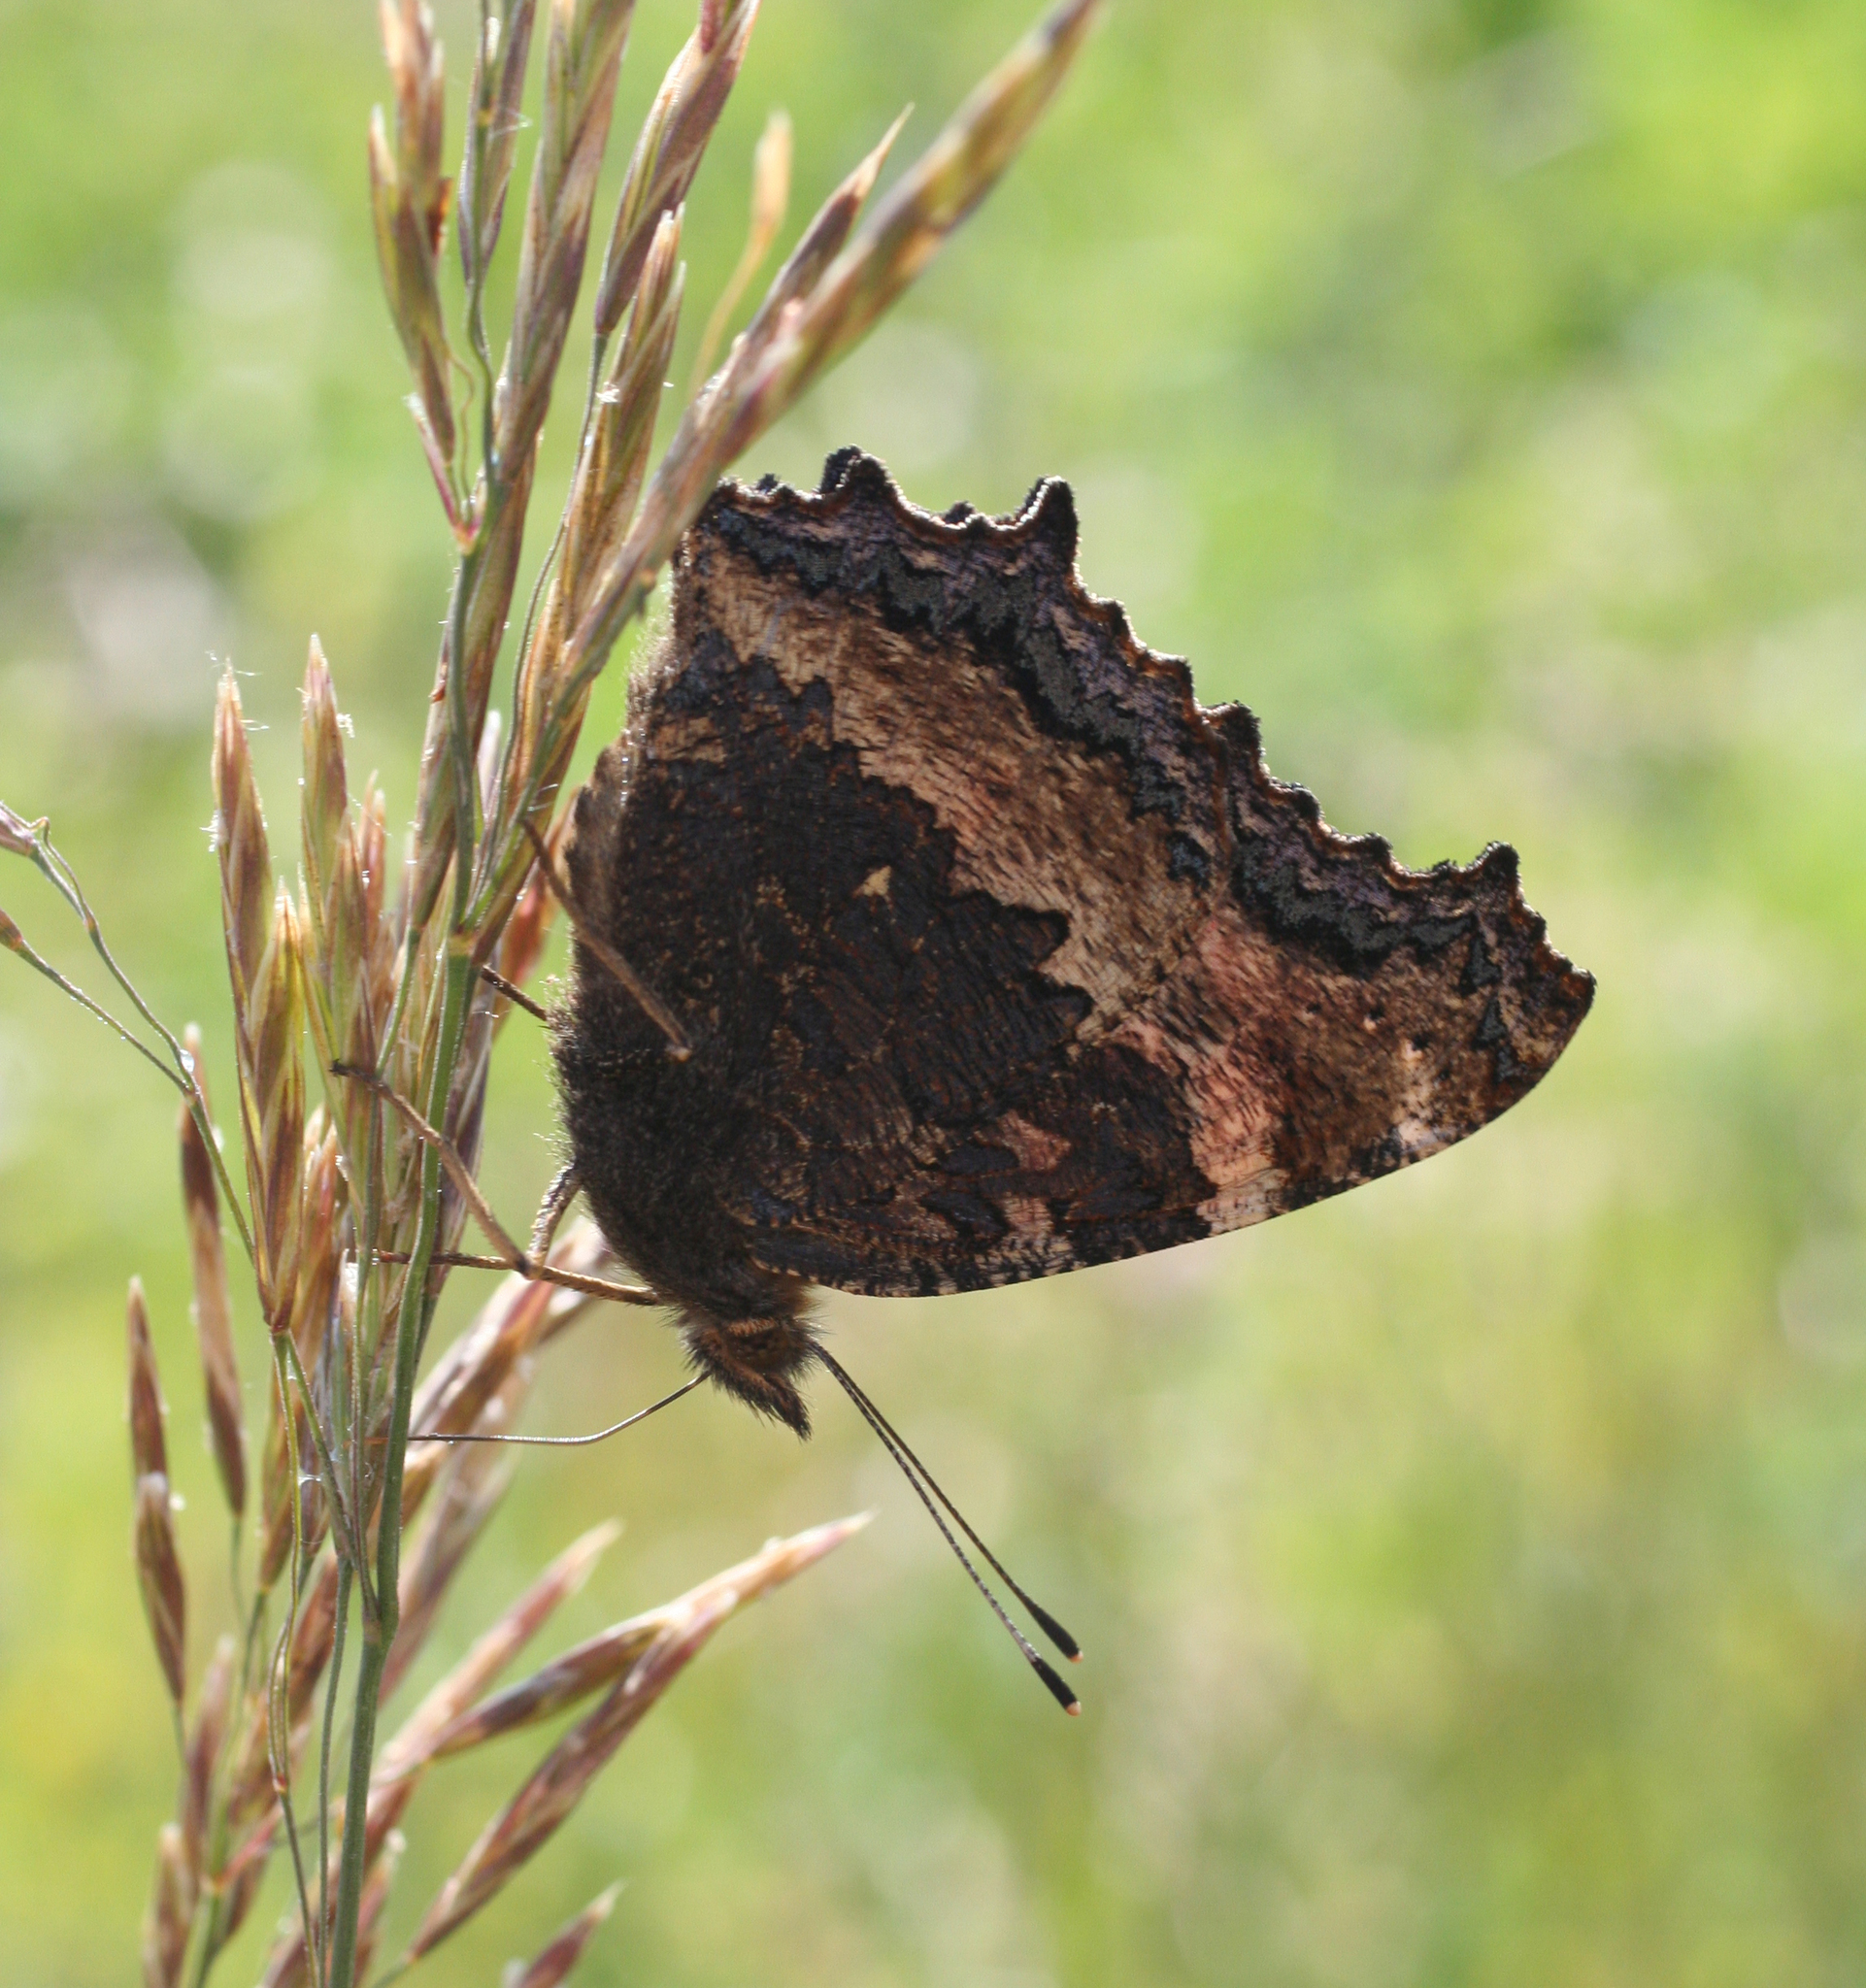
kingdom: Animalia
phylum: Arthropoda
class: Insecta
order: Lepidoptera
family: Nymphalidae
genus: Nymphalis
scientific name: Nymphalis xanthomelas
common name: Scarce tortoiseshell
